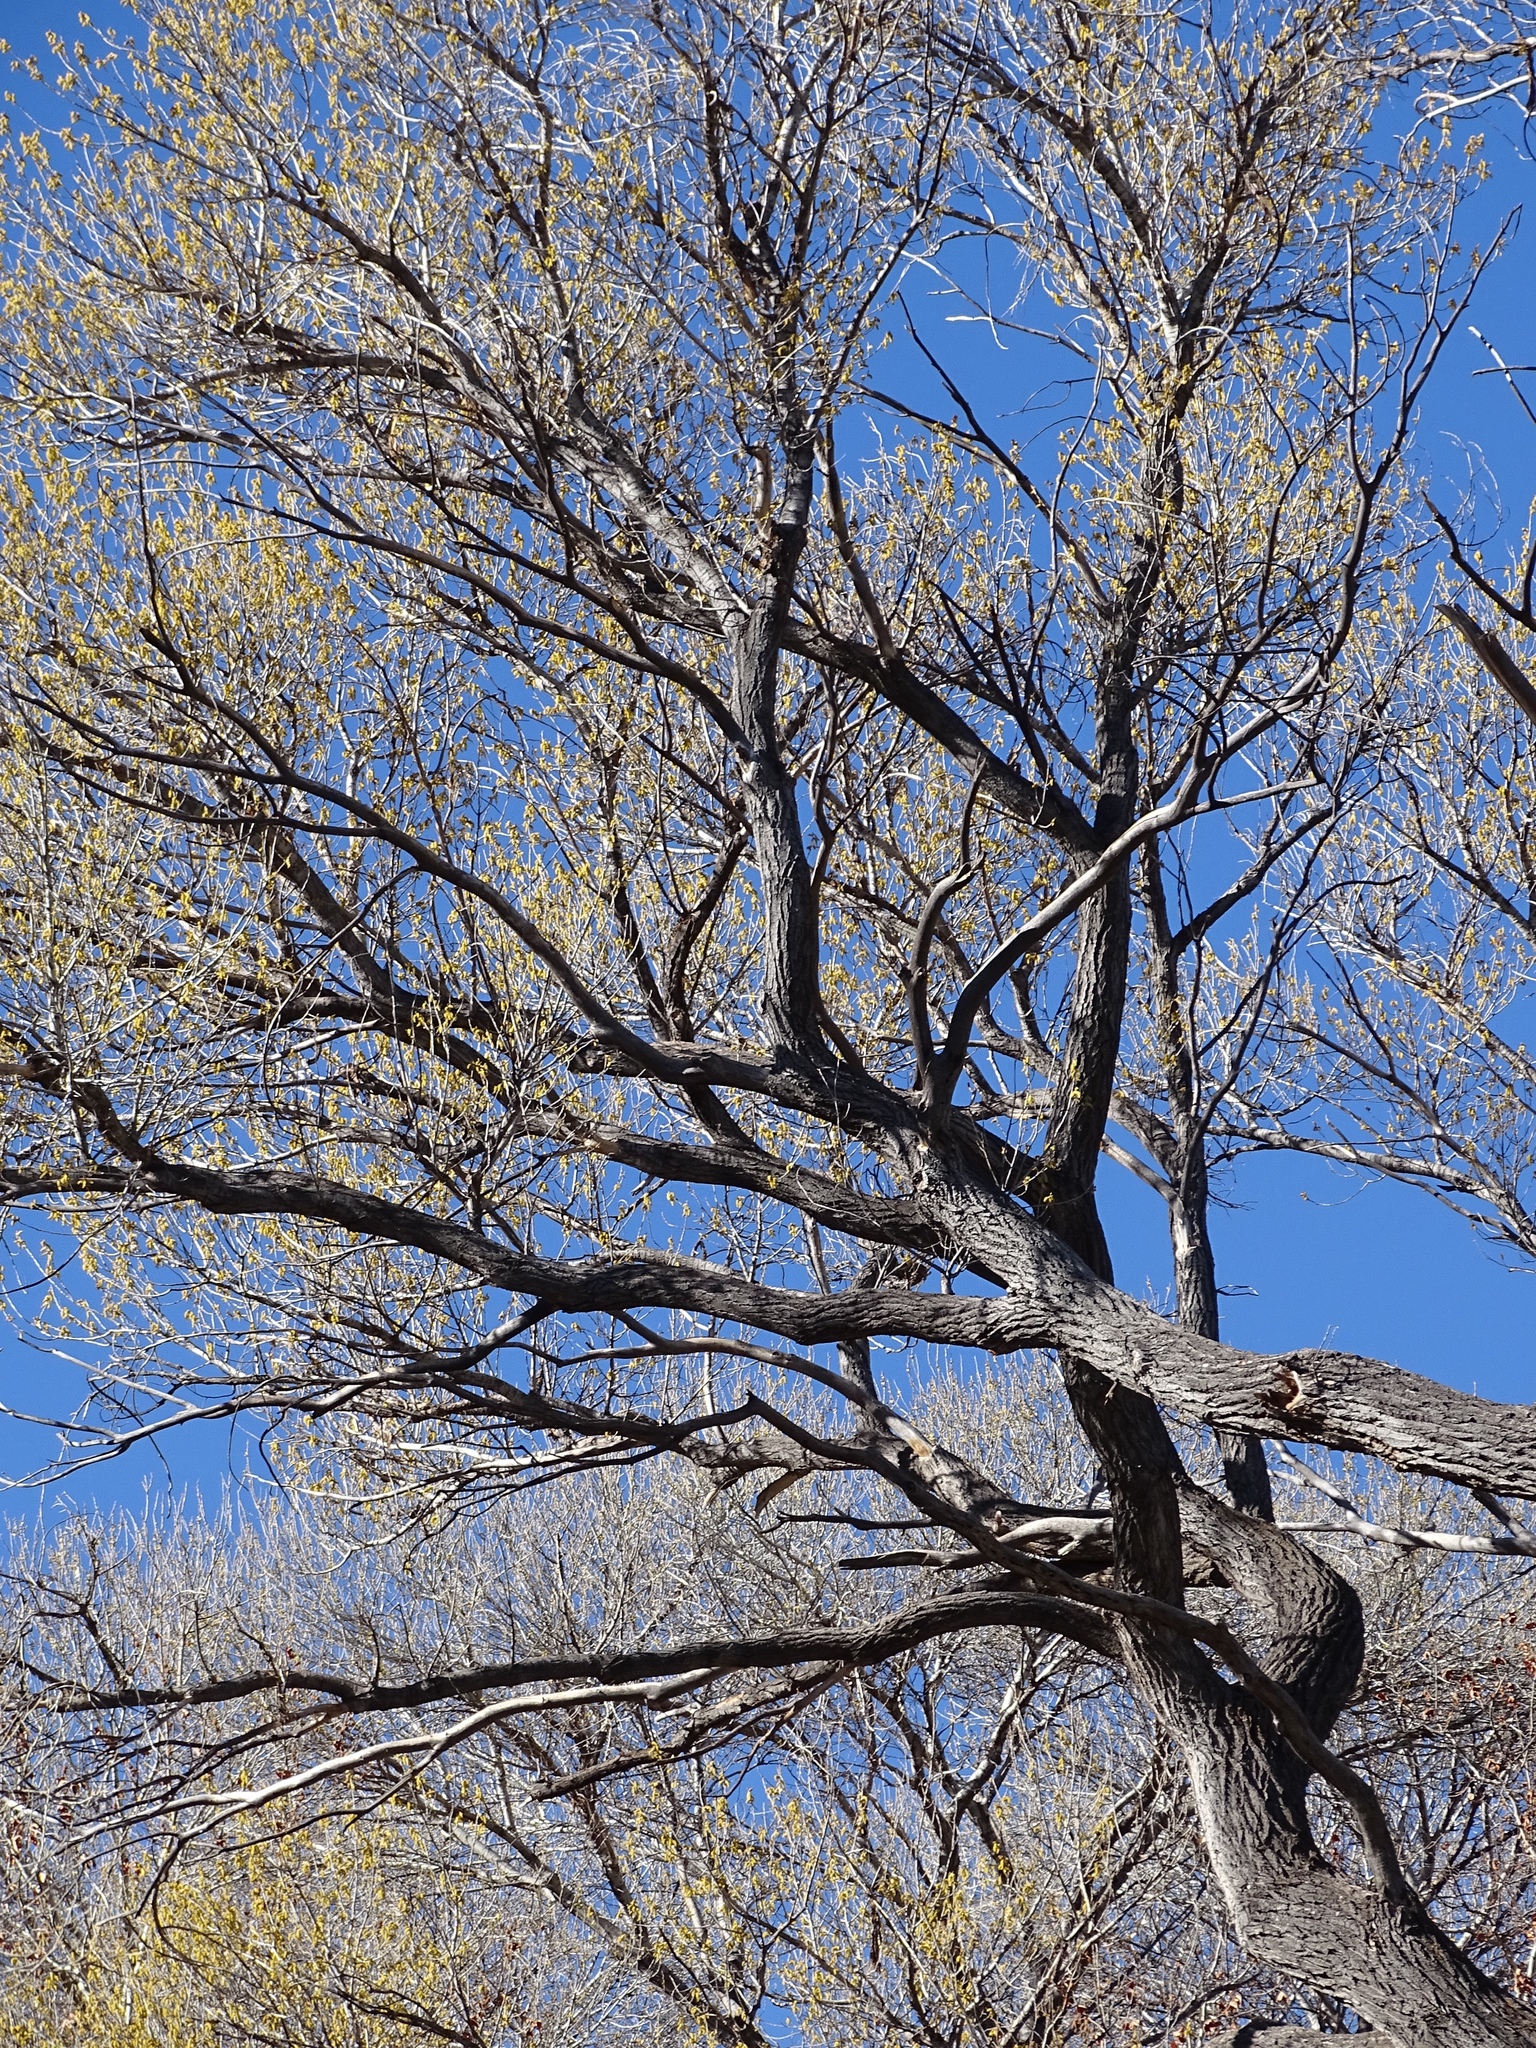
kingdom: Plantae
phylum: Tracheophyta
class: Magnoliopsida
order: Malpighiales
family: Salicaceae
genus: Populus
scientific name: Populus fremontii
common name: Fremont's cottonwood
